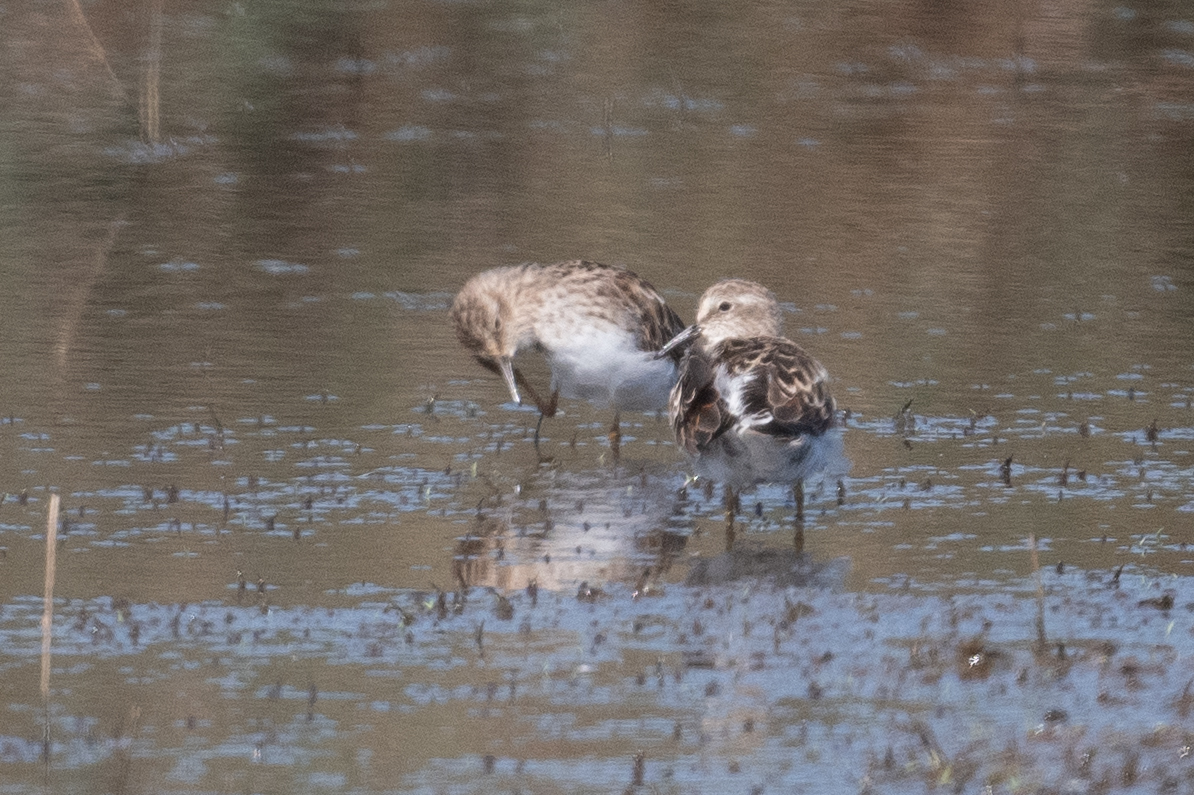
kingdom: Animalia
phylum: Chordata
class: Aves
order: Charadriiformes
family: Scolopacidae
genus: Calidris
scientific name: Calidris minutilla
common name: Least sandpiper
